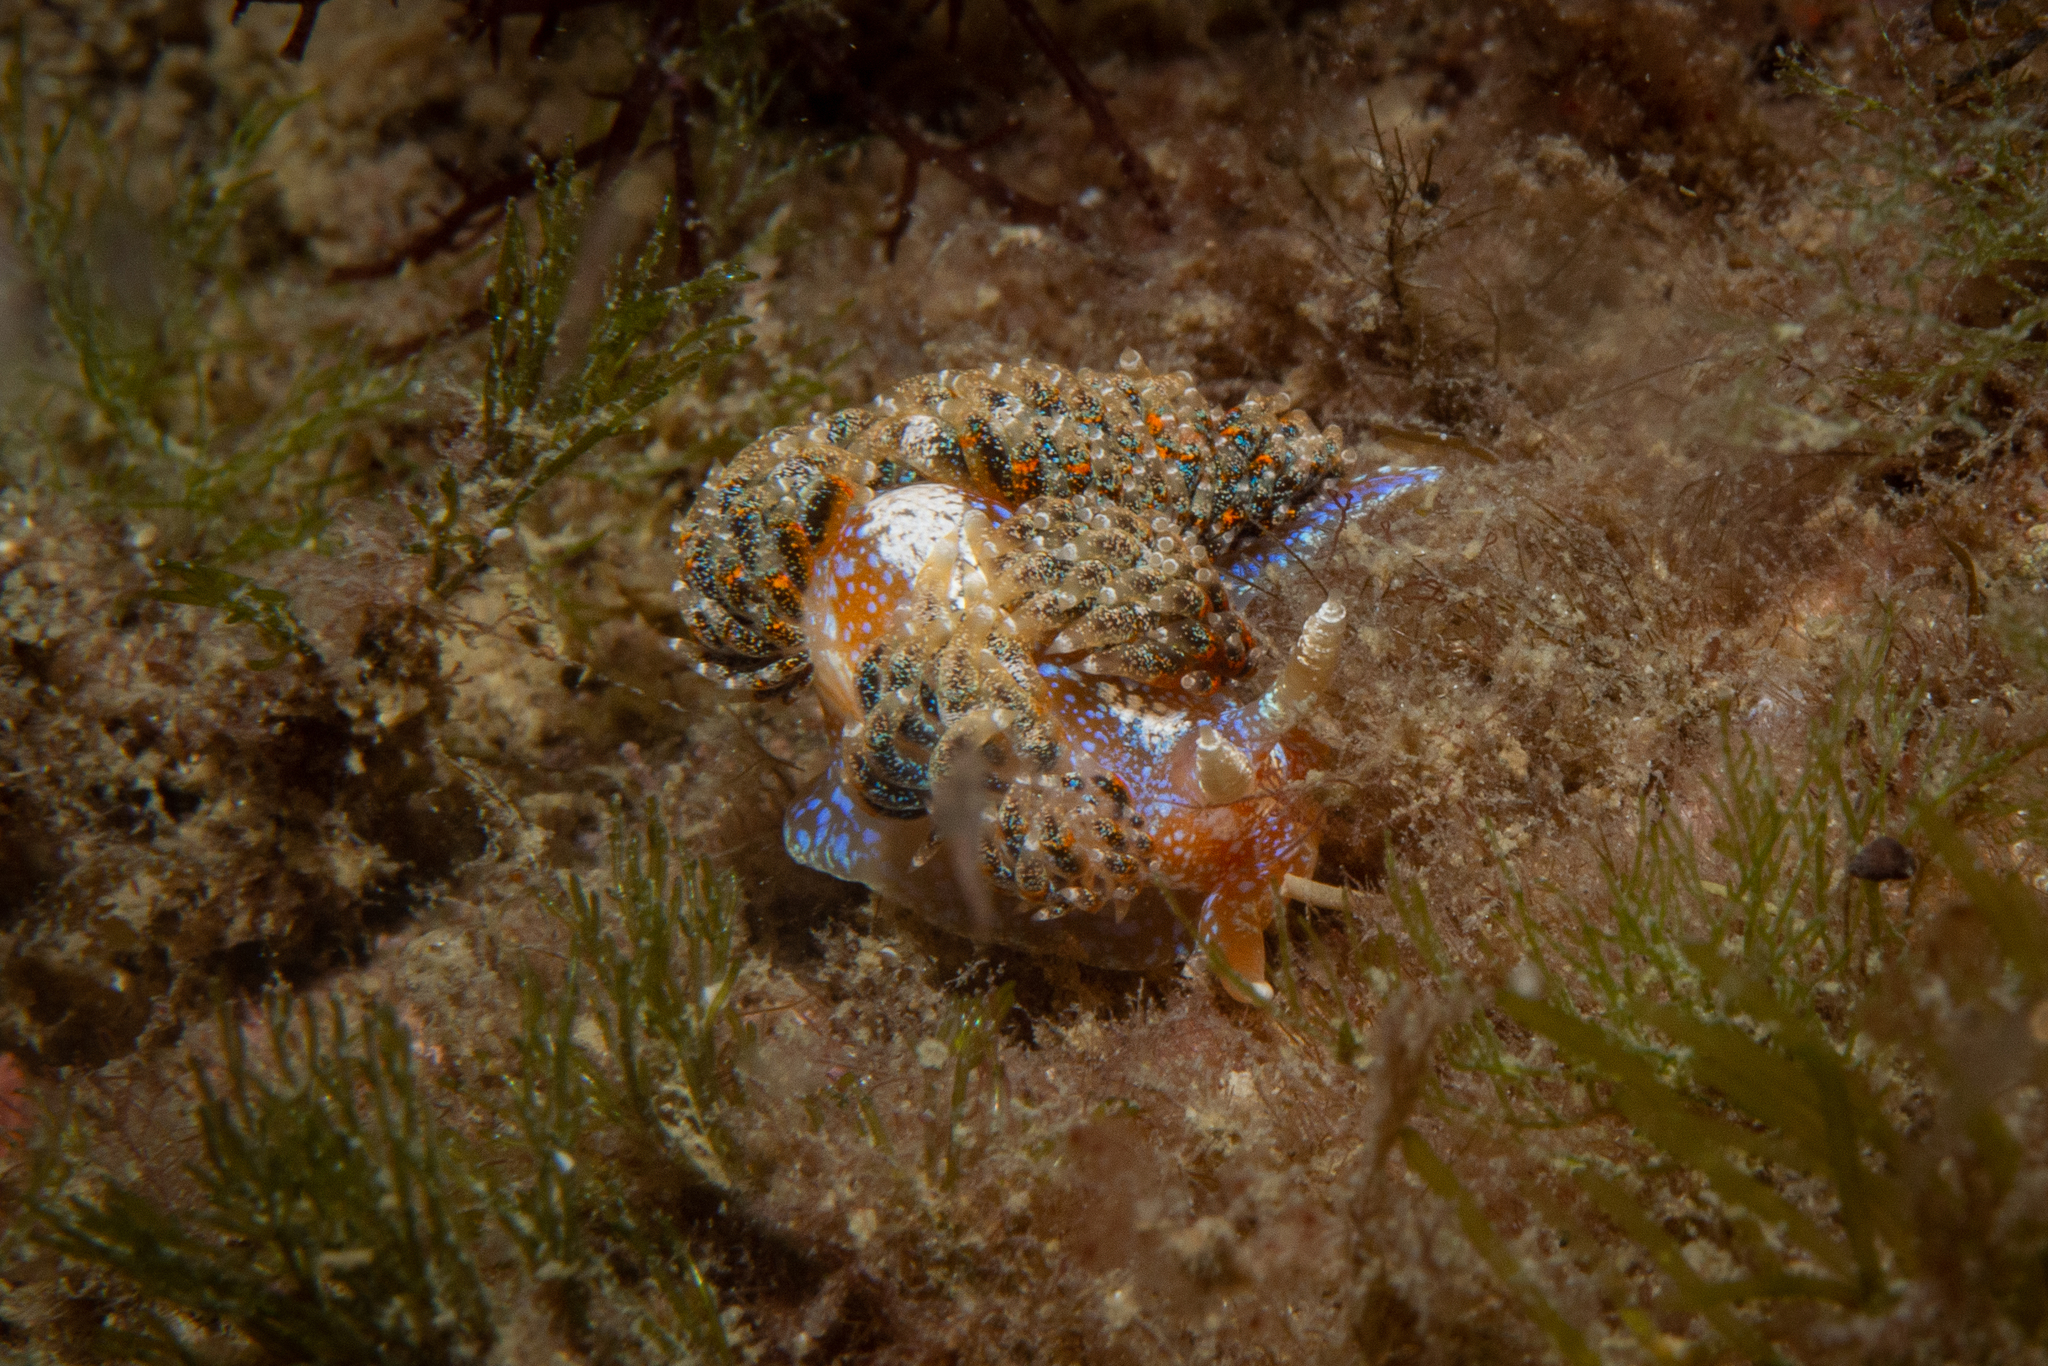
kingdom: Animalia
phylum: Mollusca
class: Gastropoda
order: Nudibranchia
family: Facelinidae
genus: Austraeolis
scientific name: Austraeolis ornata
